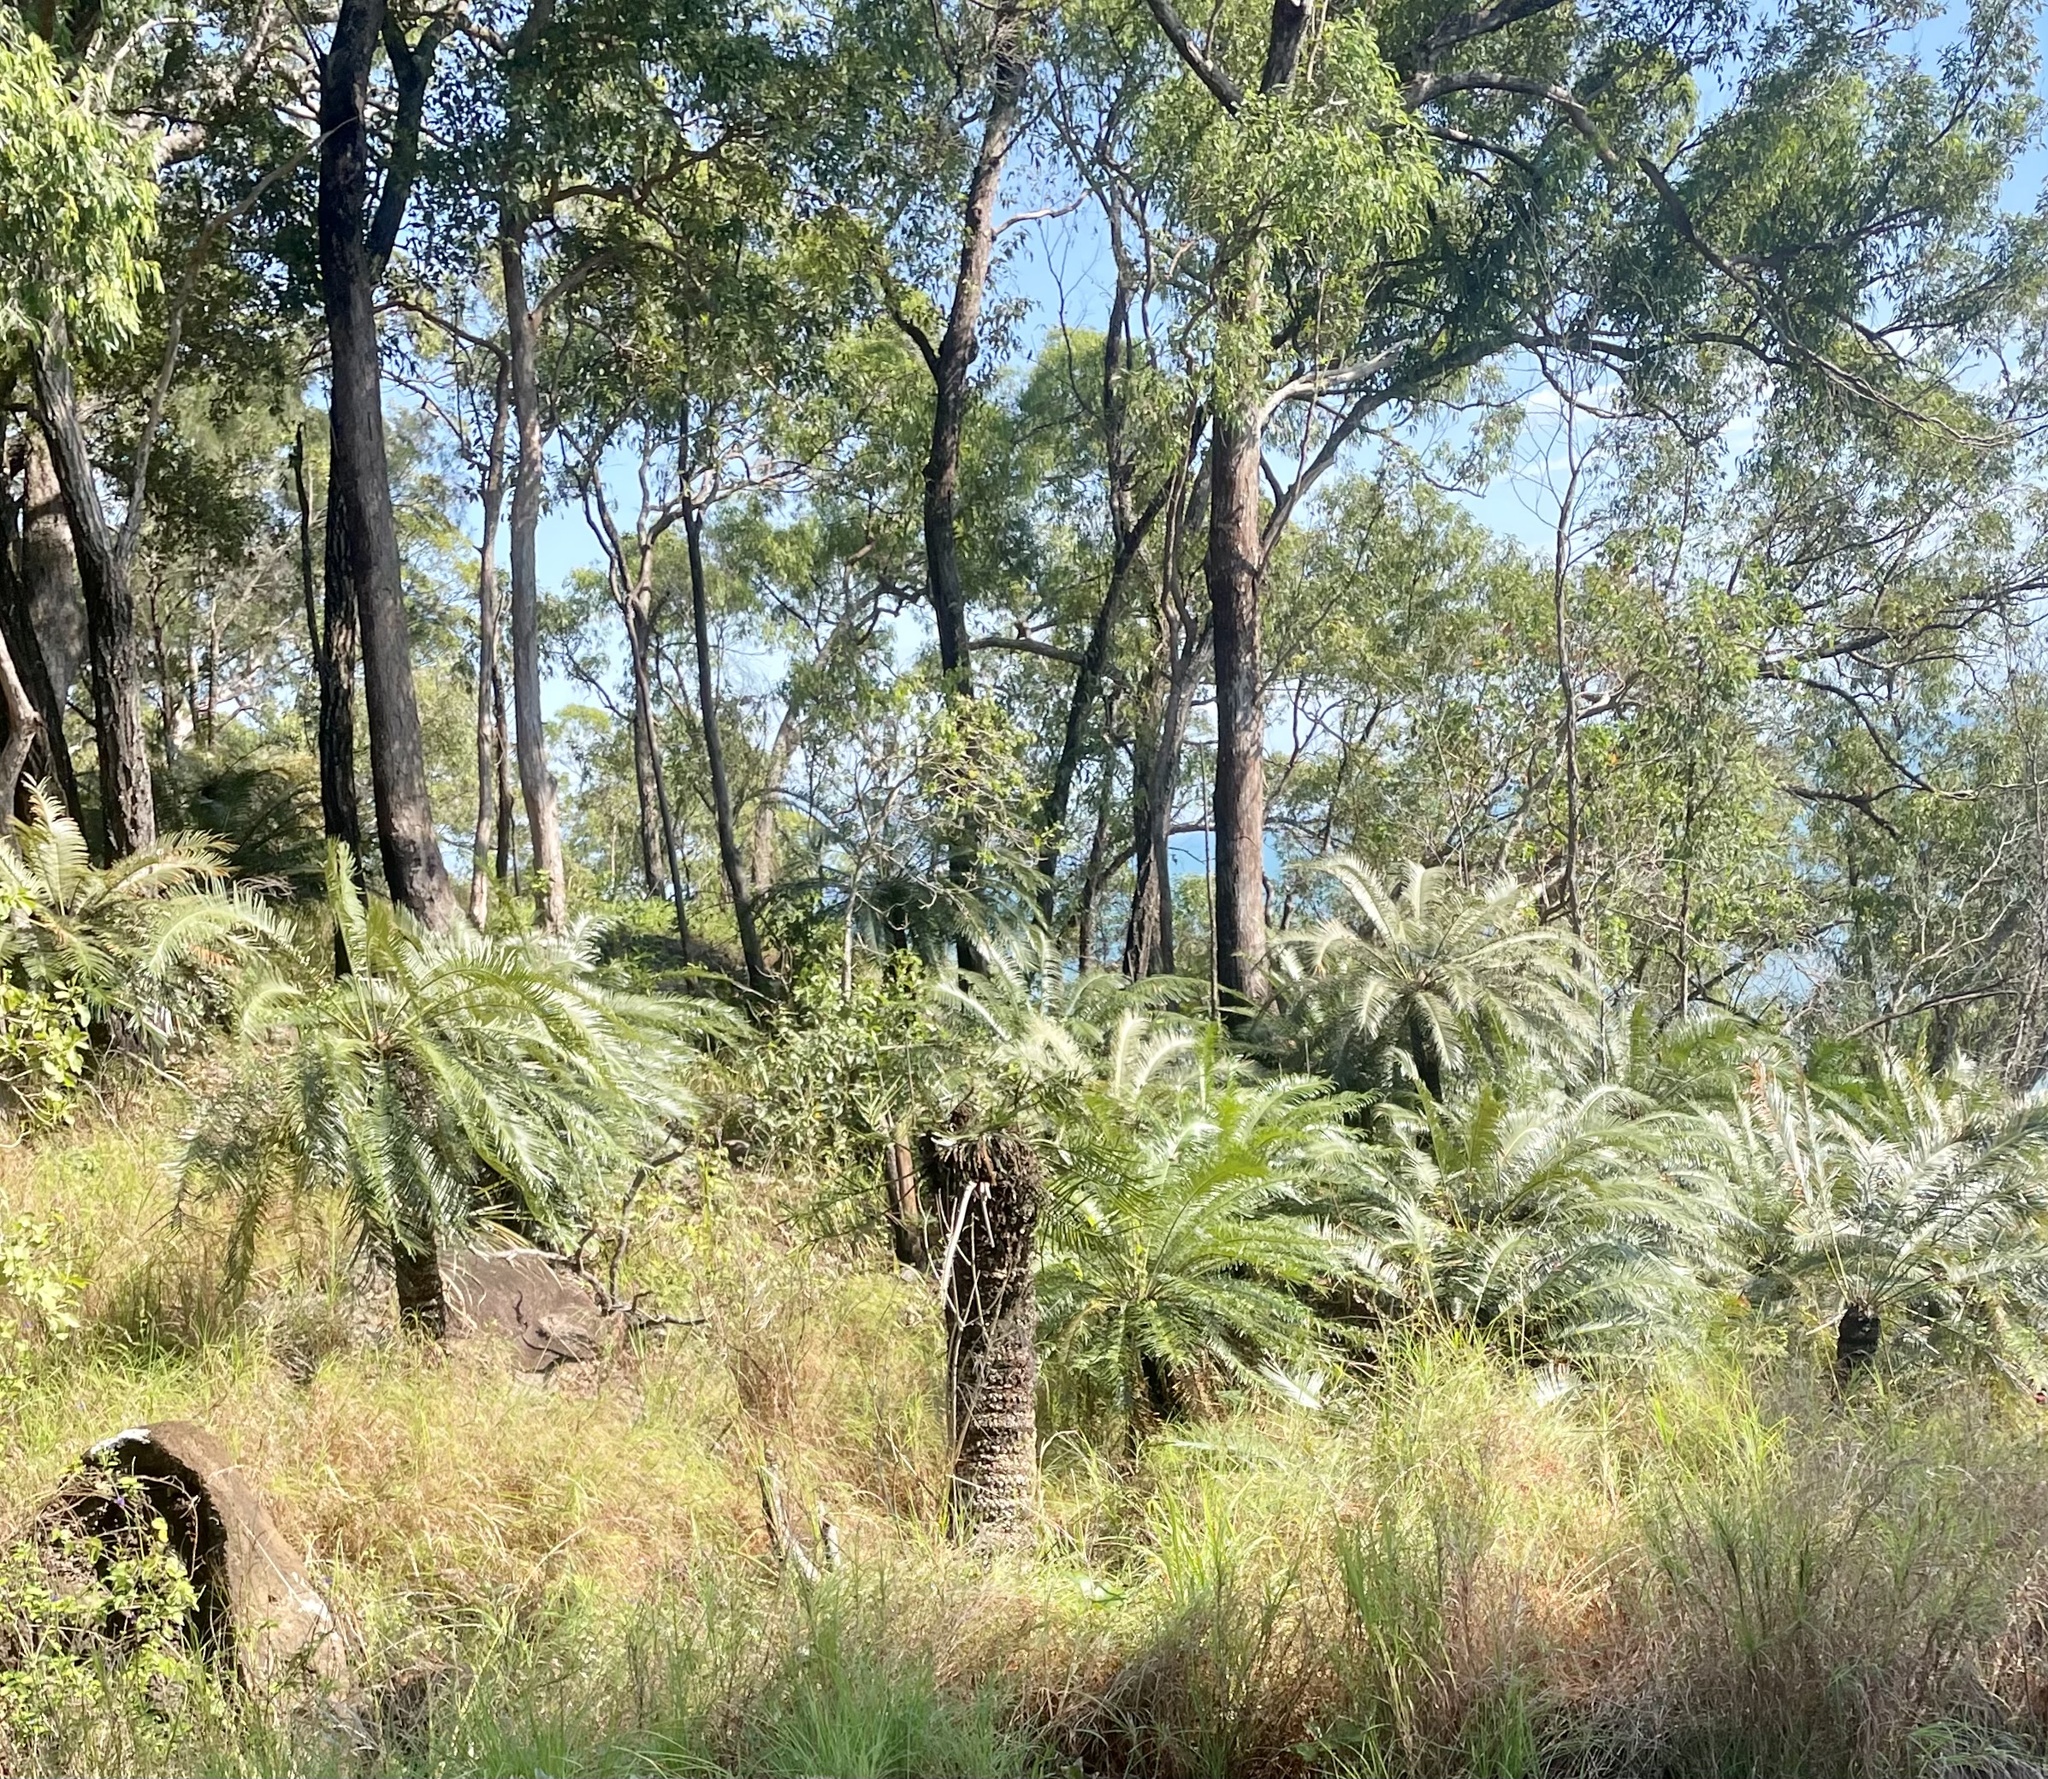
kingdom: Plantae
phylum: Tracheophyta
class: Cycadopsida
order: Cycadales
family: Cycadaceae
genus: Cycas
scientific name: Cycas media
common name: Queensland cycas
